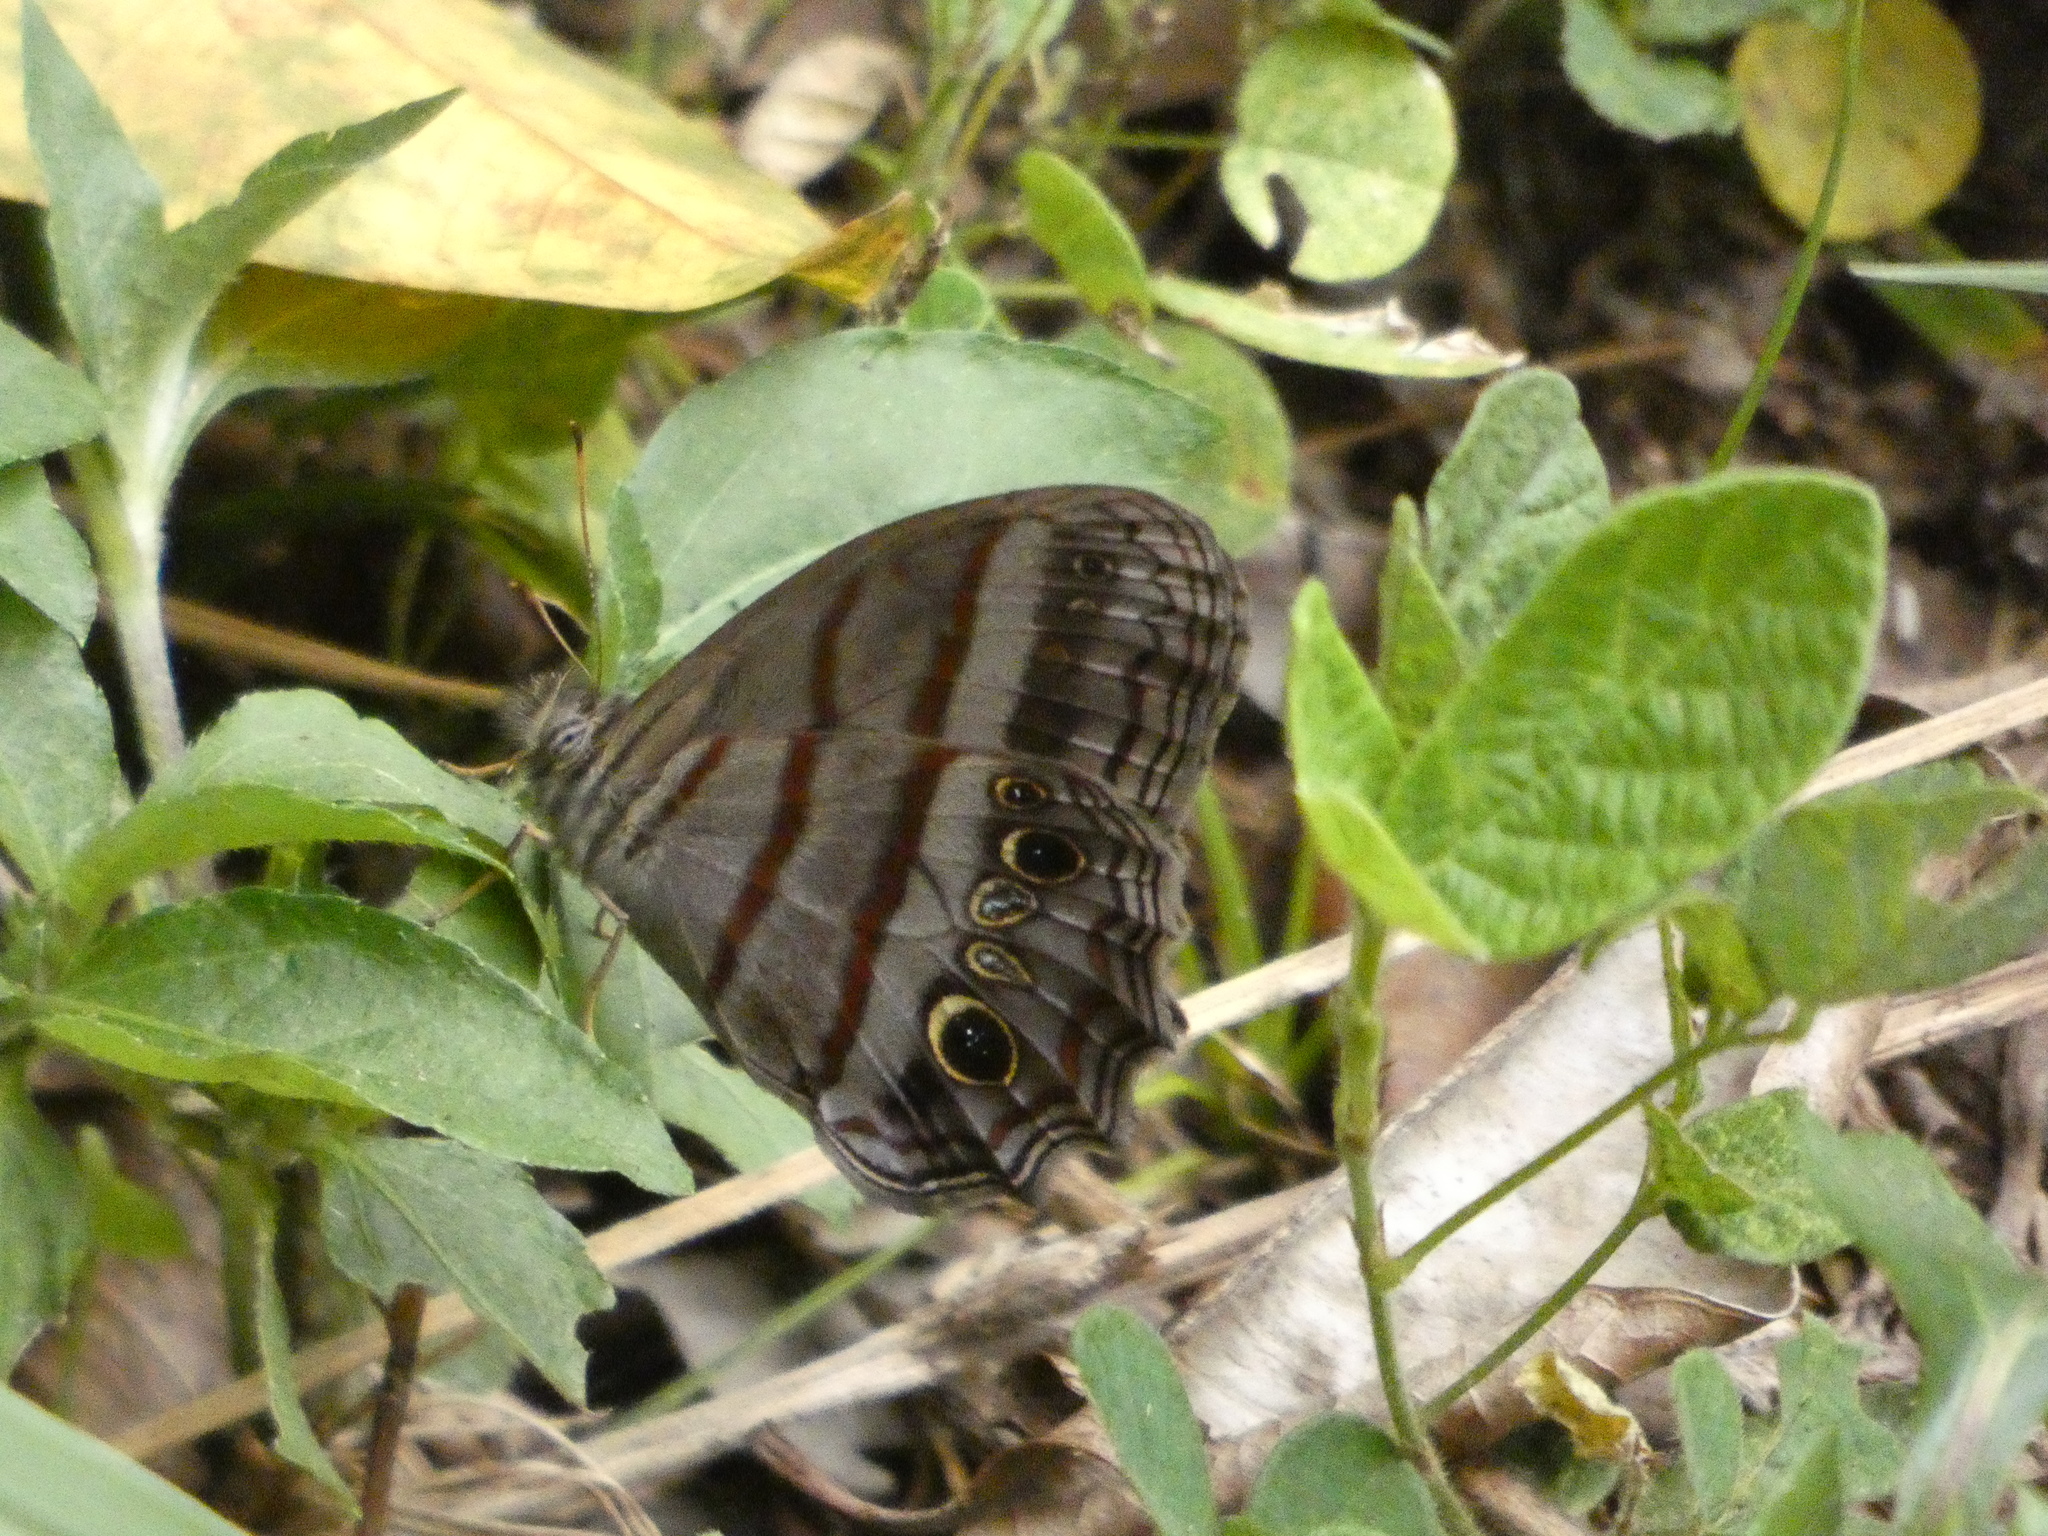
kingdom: Animalia
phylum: Arthropoda
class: Insecta
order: Lepidoptera
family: Nymphalidae
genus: Magneuptychia
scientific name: Magneuptychia libye
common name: Blue-gray satyr
